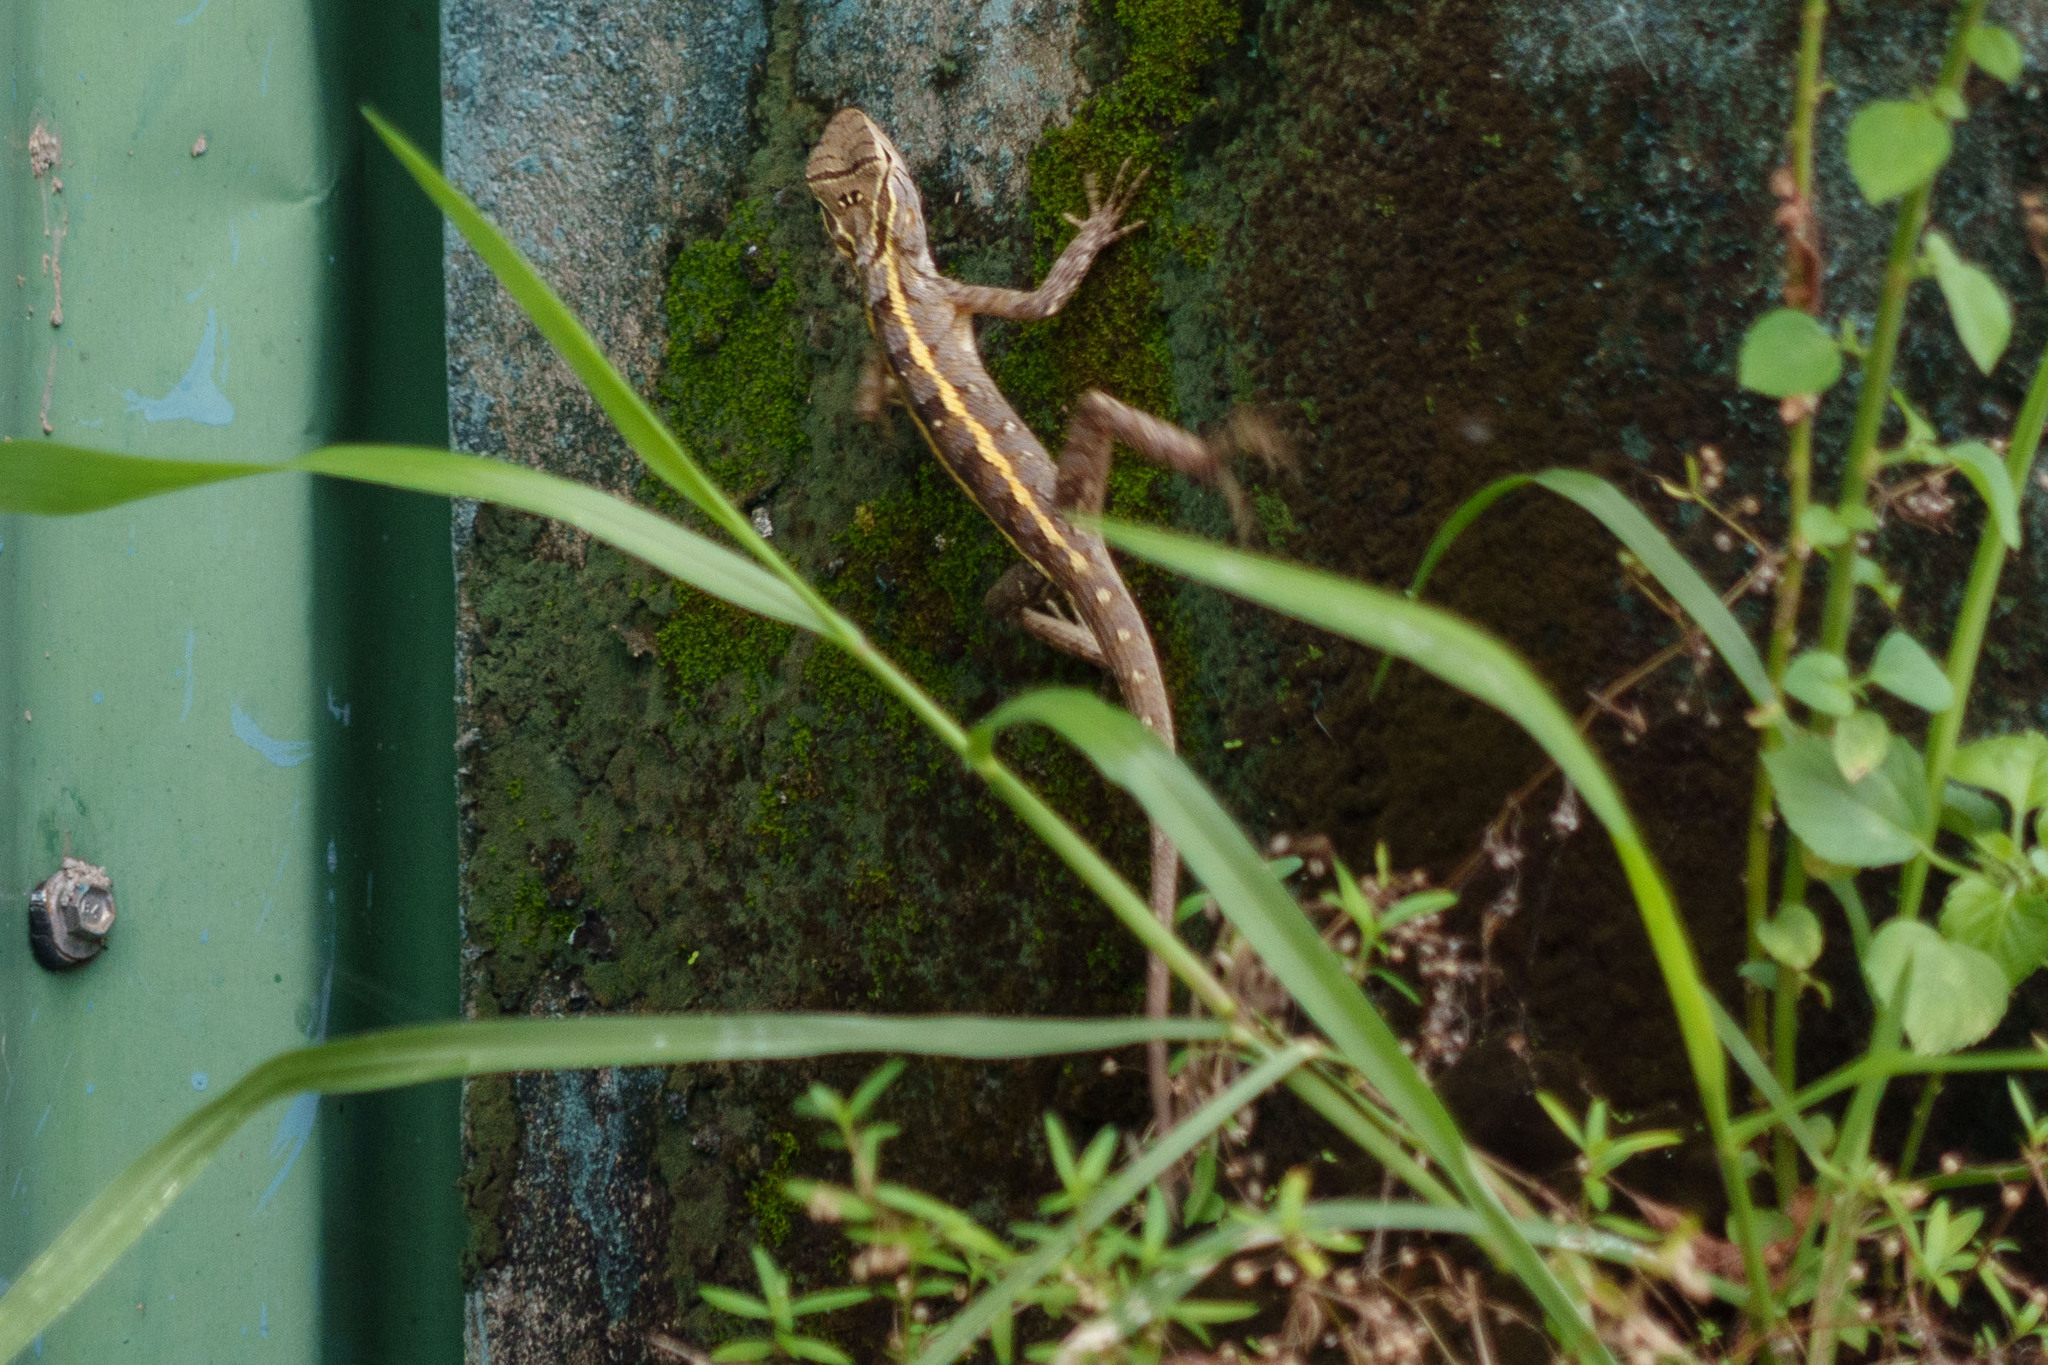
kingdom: Animalia
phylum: Chordata
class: Squamata
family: Agamidae
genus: Calotes
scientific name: Calotes versicolor
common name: Oriental garden lizard
